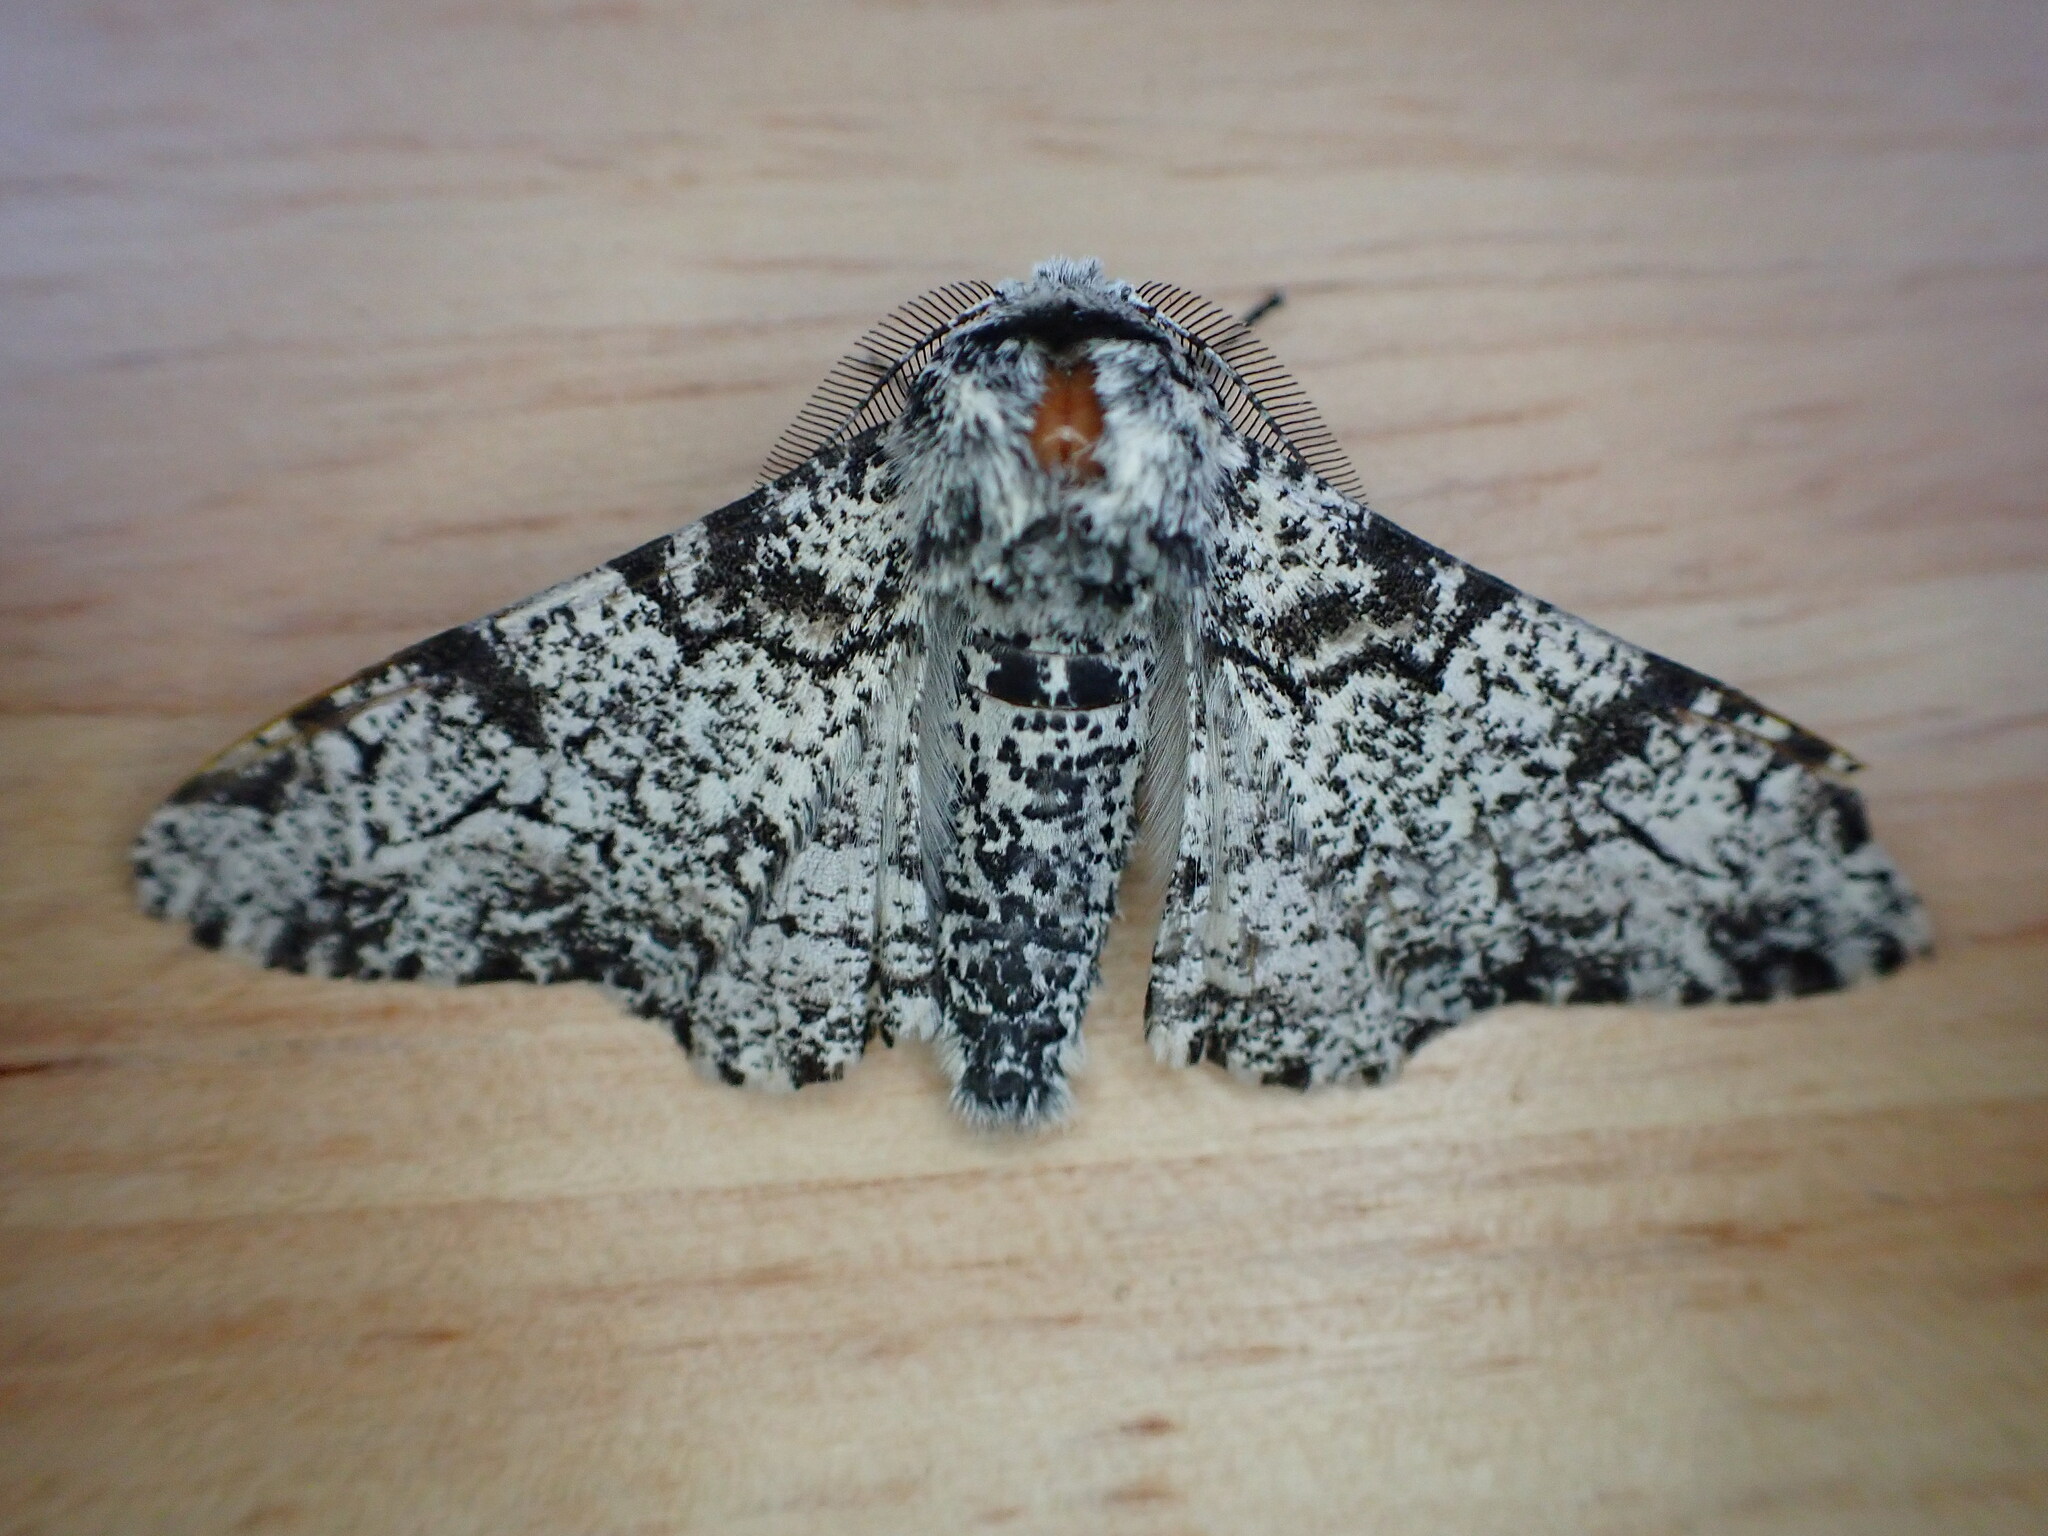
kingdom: Animalia
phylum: Arthropoda
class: Insecta
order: Lepidoptera
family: Geometridae
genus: Biston
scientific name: Biston betularia
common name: Peppered moth
